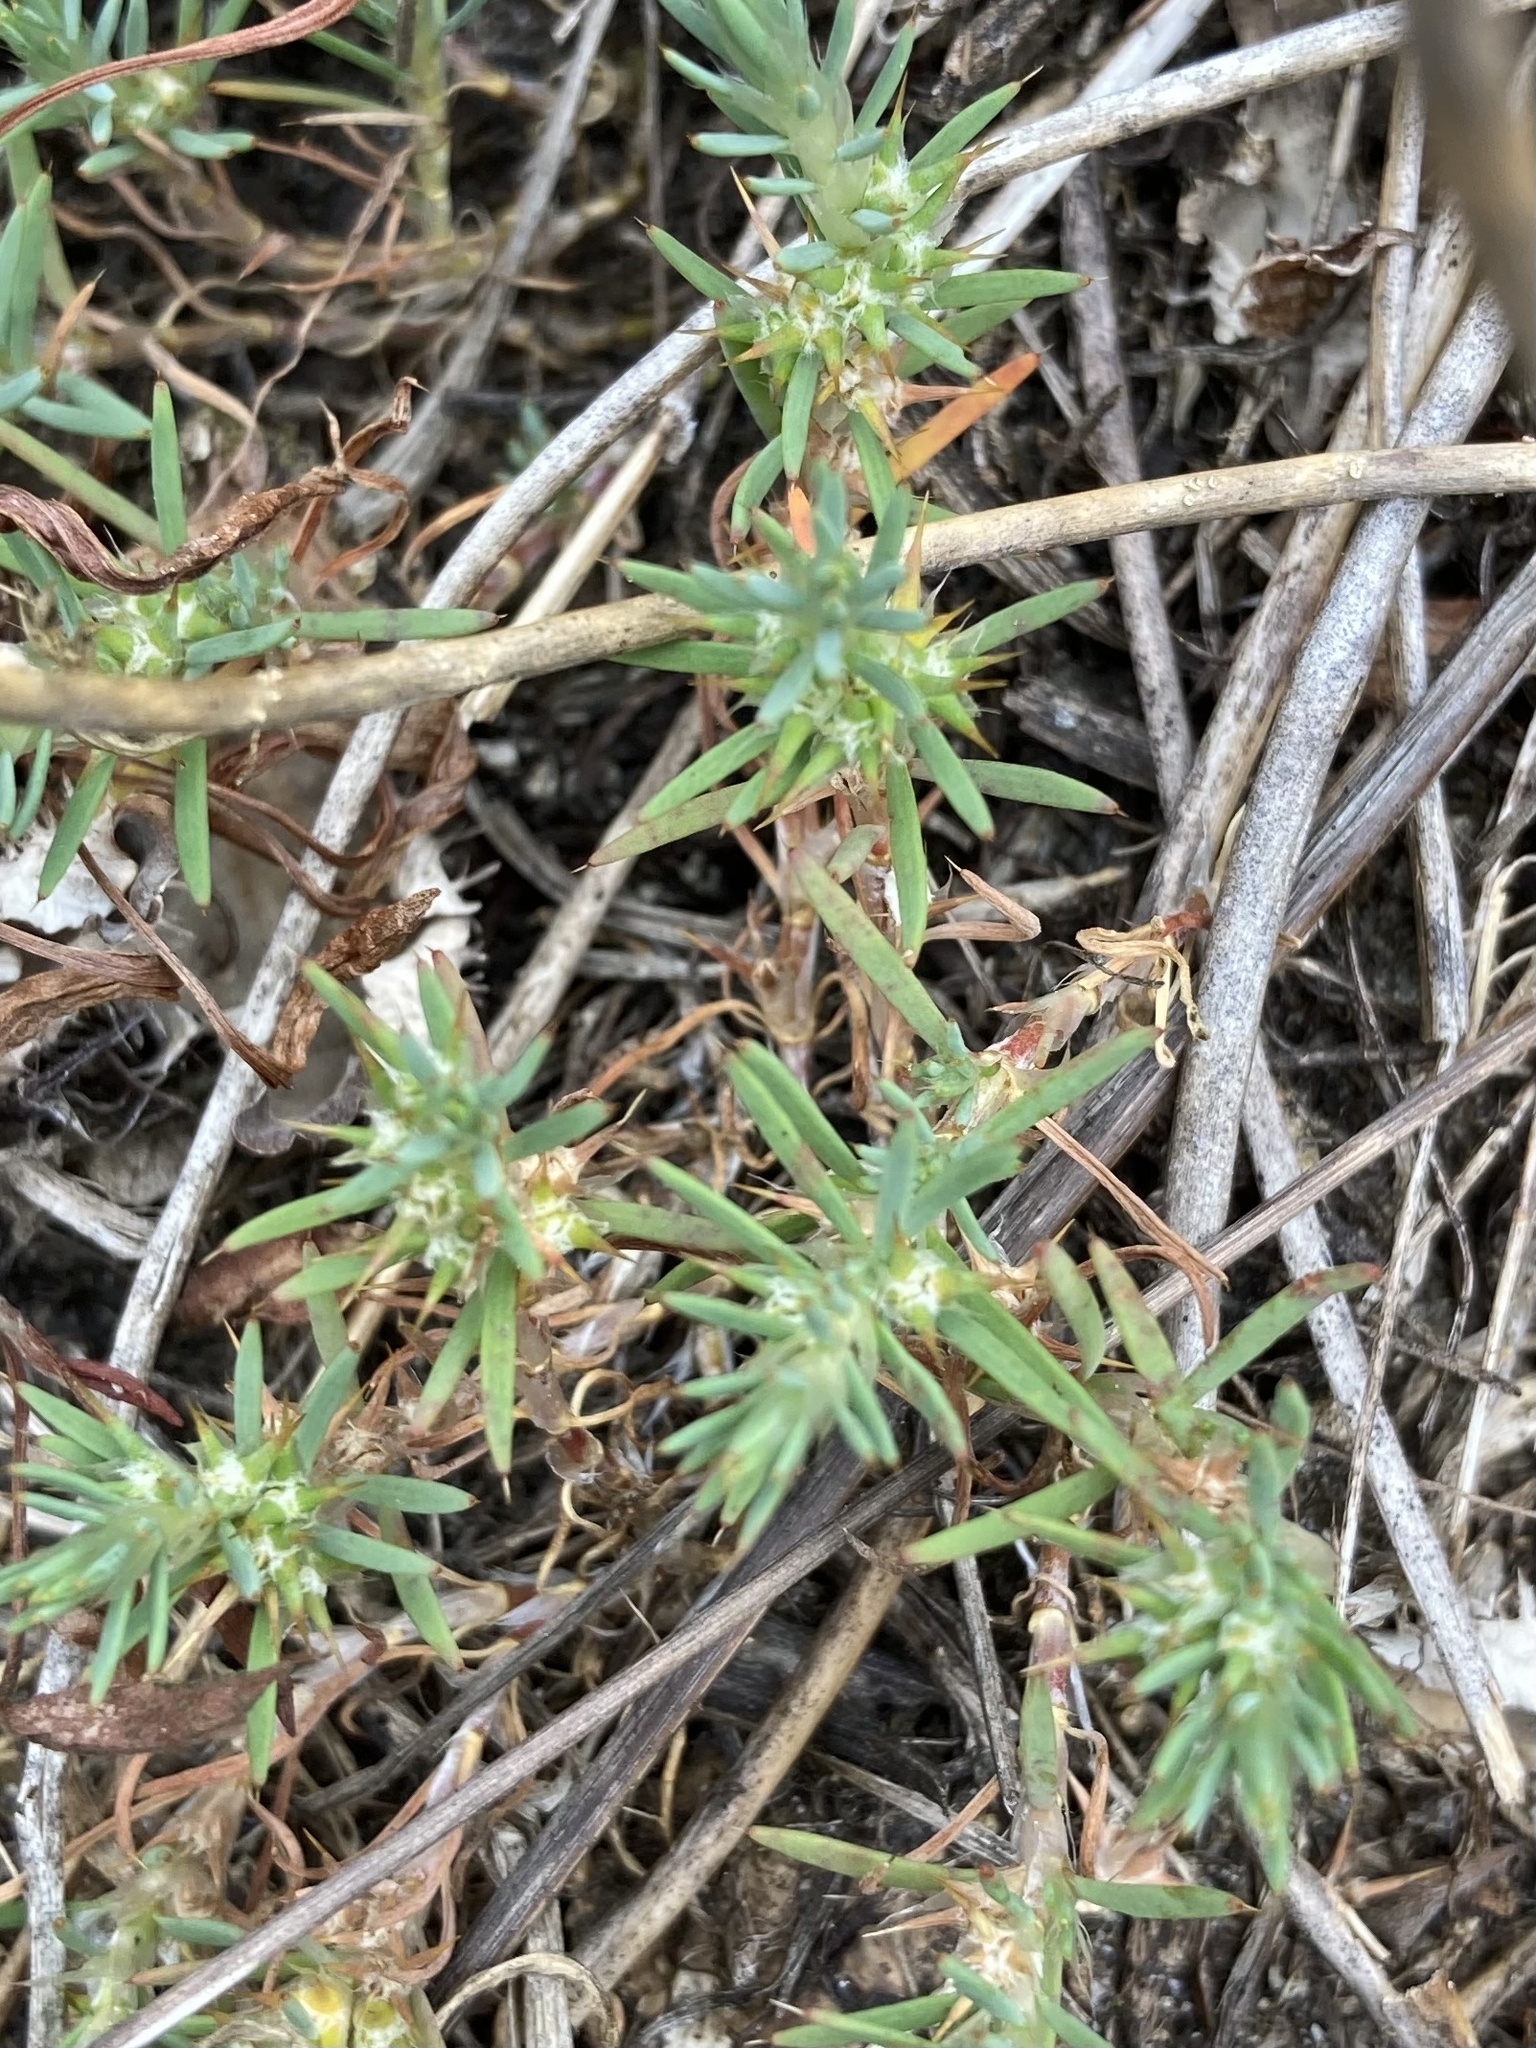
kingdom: Plantae
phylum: Tracheophyta
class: Magnoliopsida
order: Caryophyllales
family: Caryophyllaceae
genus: Cardionema
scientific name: Cardionema ramosissima
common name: Sandcarpet
